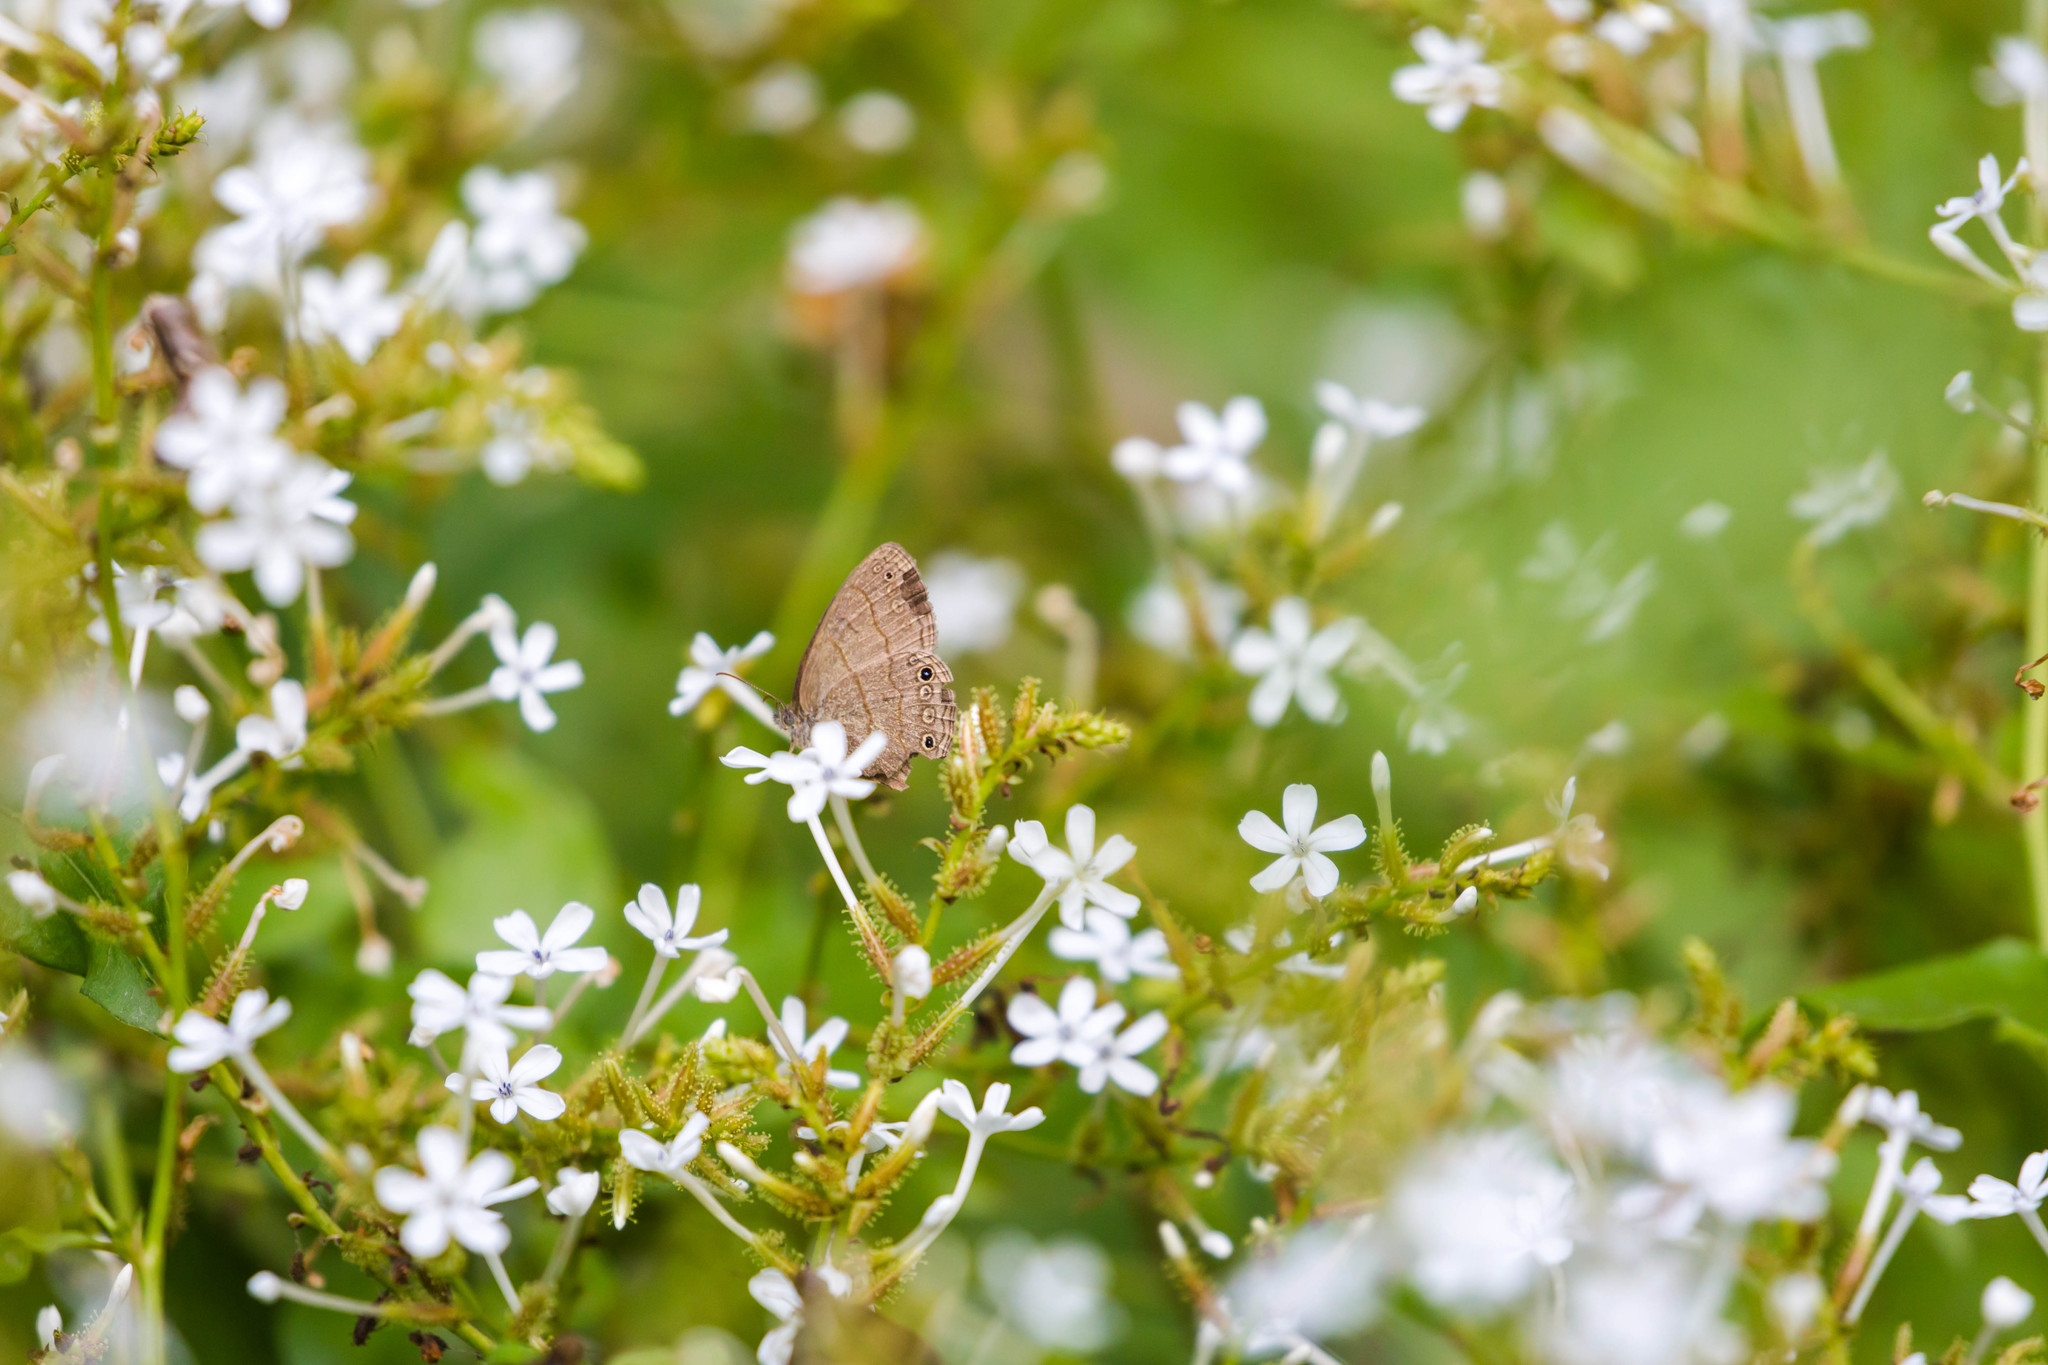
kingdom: Animalia
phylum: Arthropoda
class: Insecta
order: Lepidoptera
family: Nymphalidae
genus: Hermeuptychia
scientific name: Hermeuptychia hermybius
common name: South texas satyr
